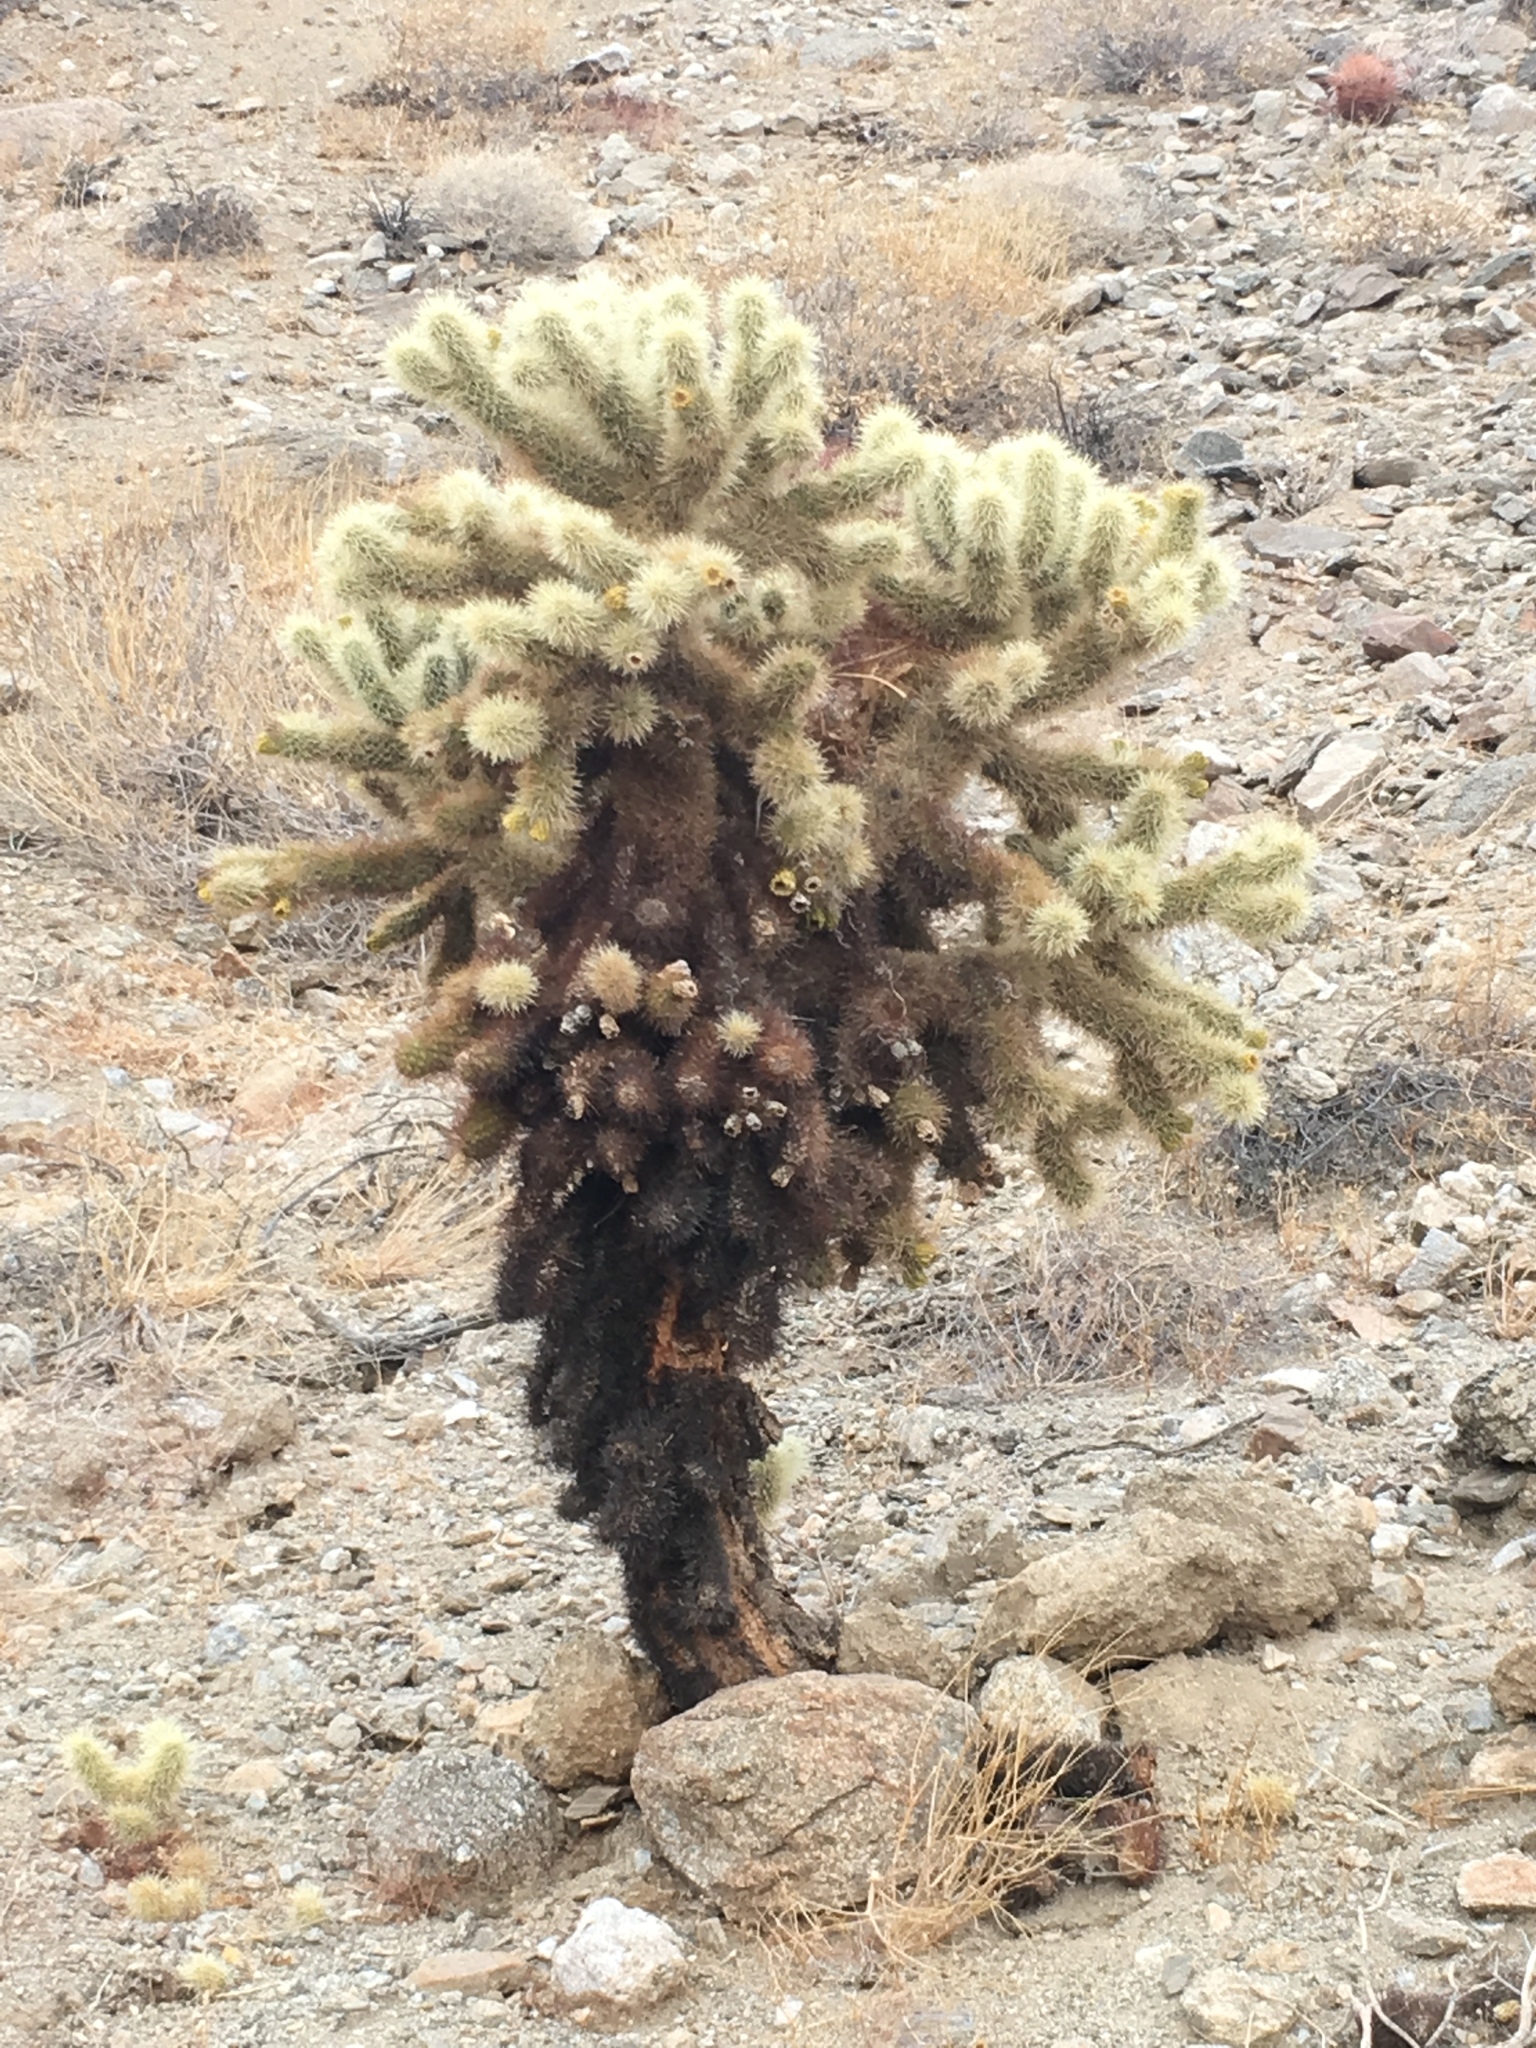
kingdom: Plantae
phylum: Tracheophyta
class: Magnoliopsida
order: Caryophyllales
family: Cactaceae
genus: Cylindropuntia
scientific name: Cylindropuntia fosbergii
